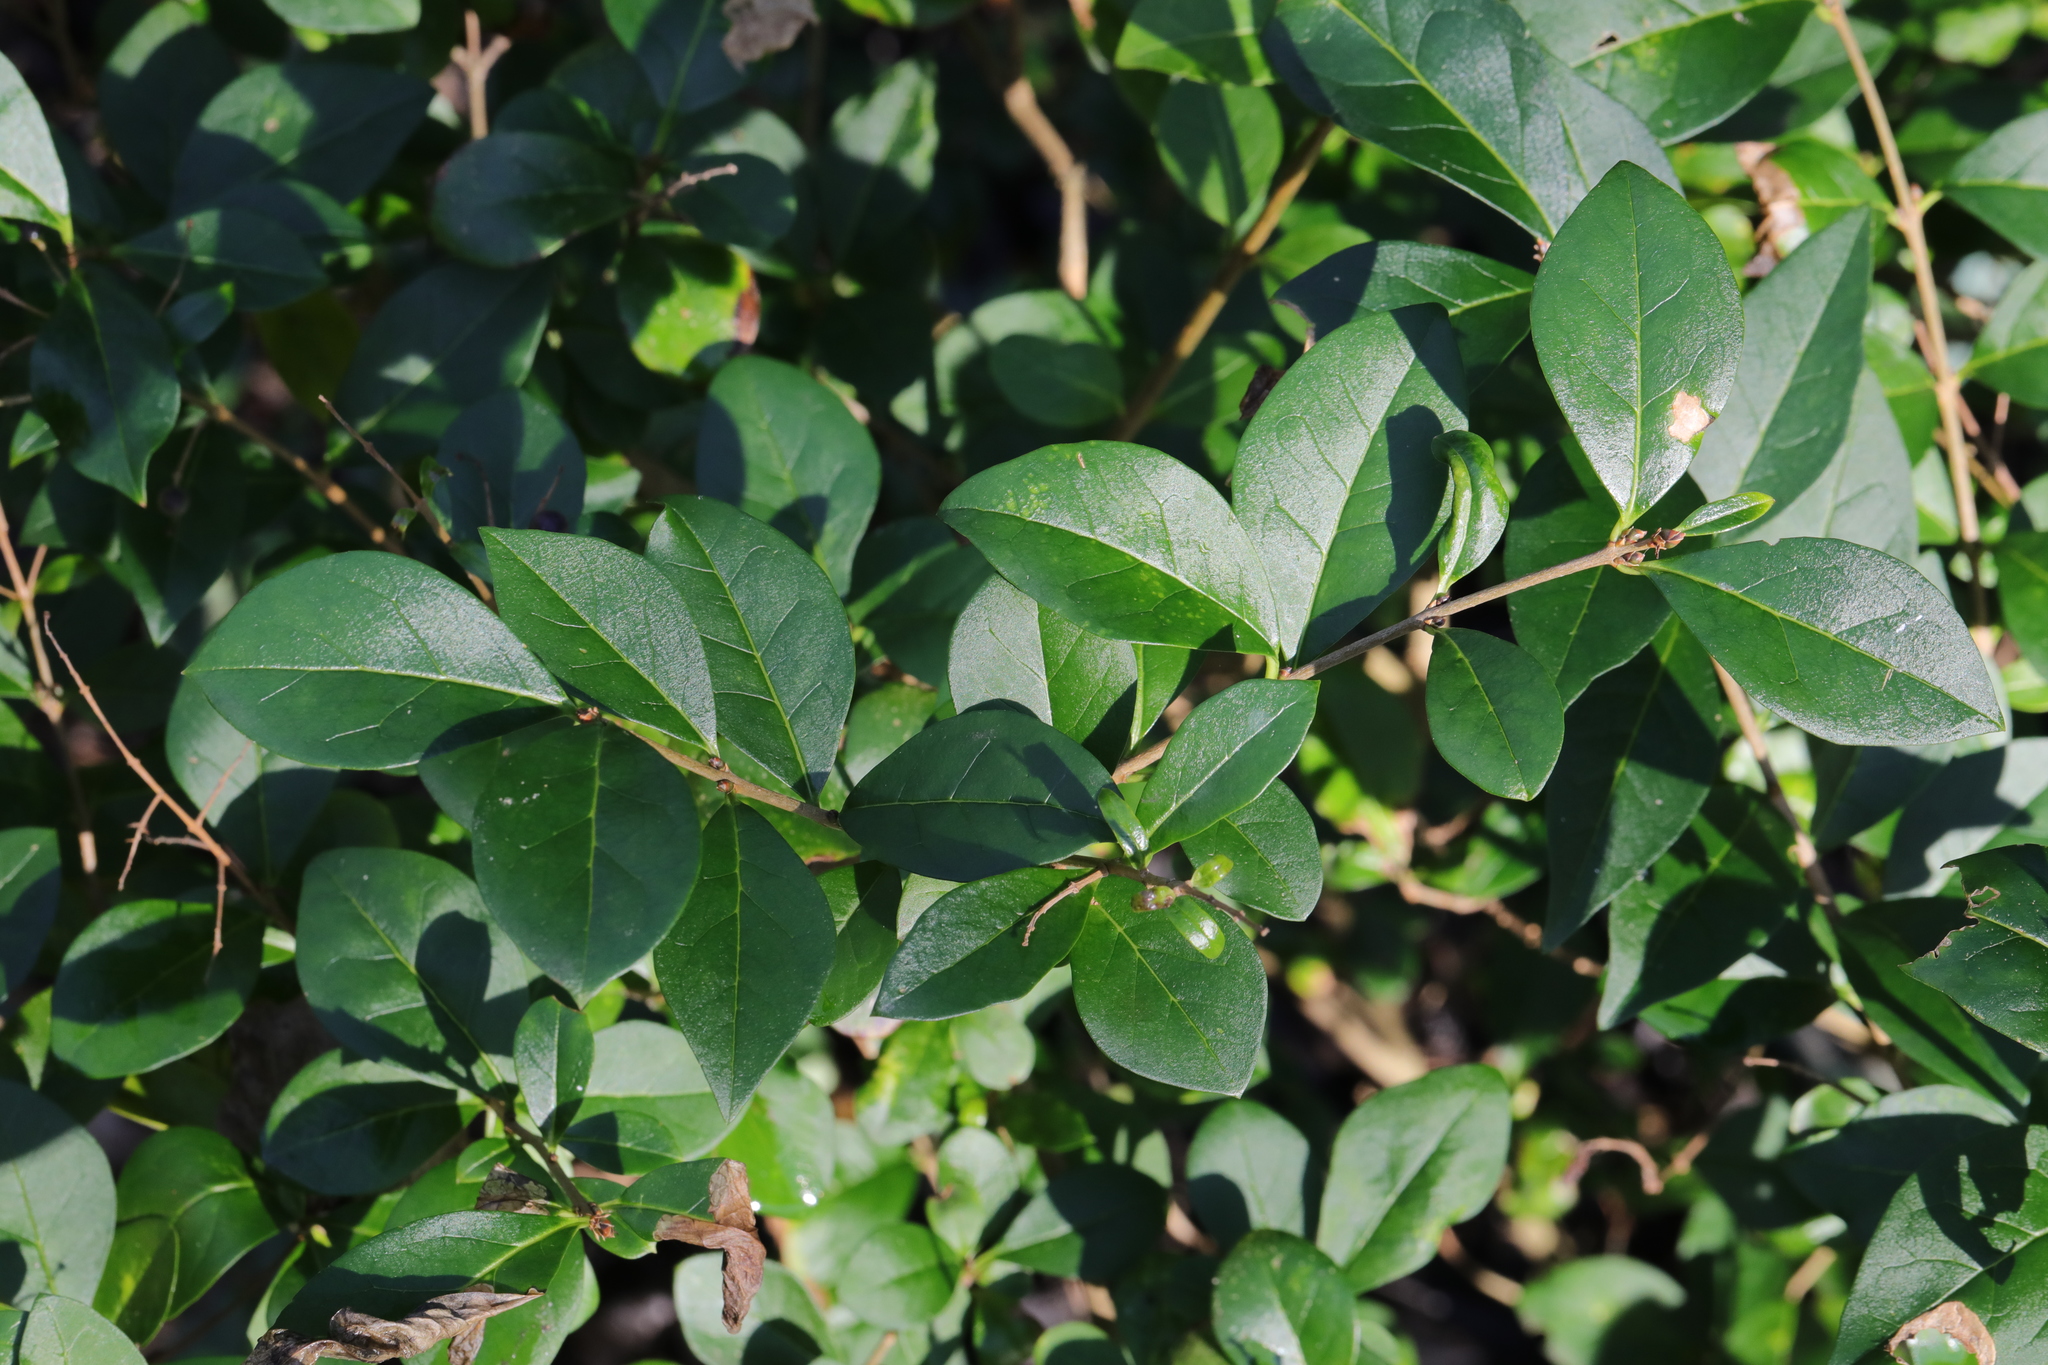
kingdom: Plantae
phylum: Tracheophyta
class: Magnoliopsida
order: Lamiales
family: Oleaceae
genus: Ligustrum
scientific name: Ligustrum ovalifolium
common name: California privet
